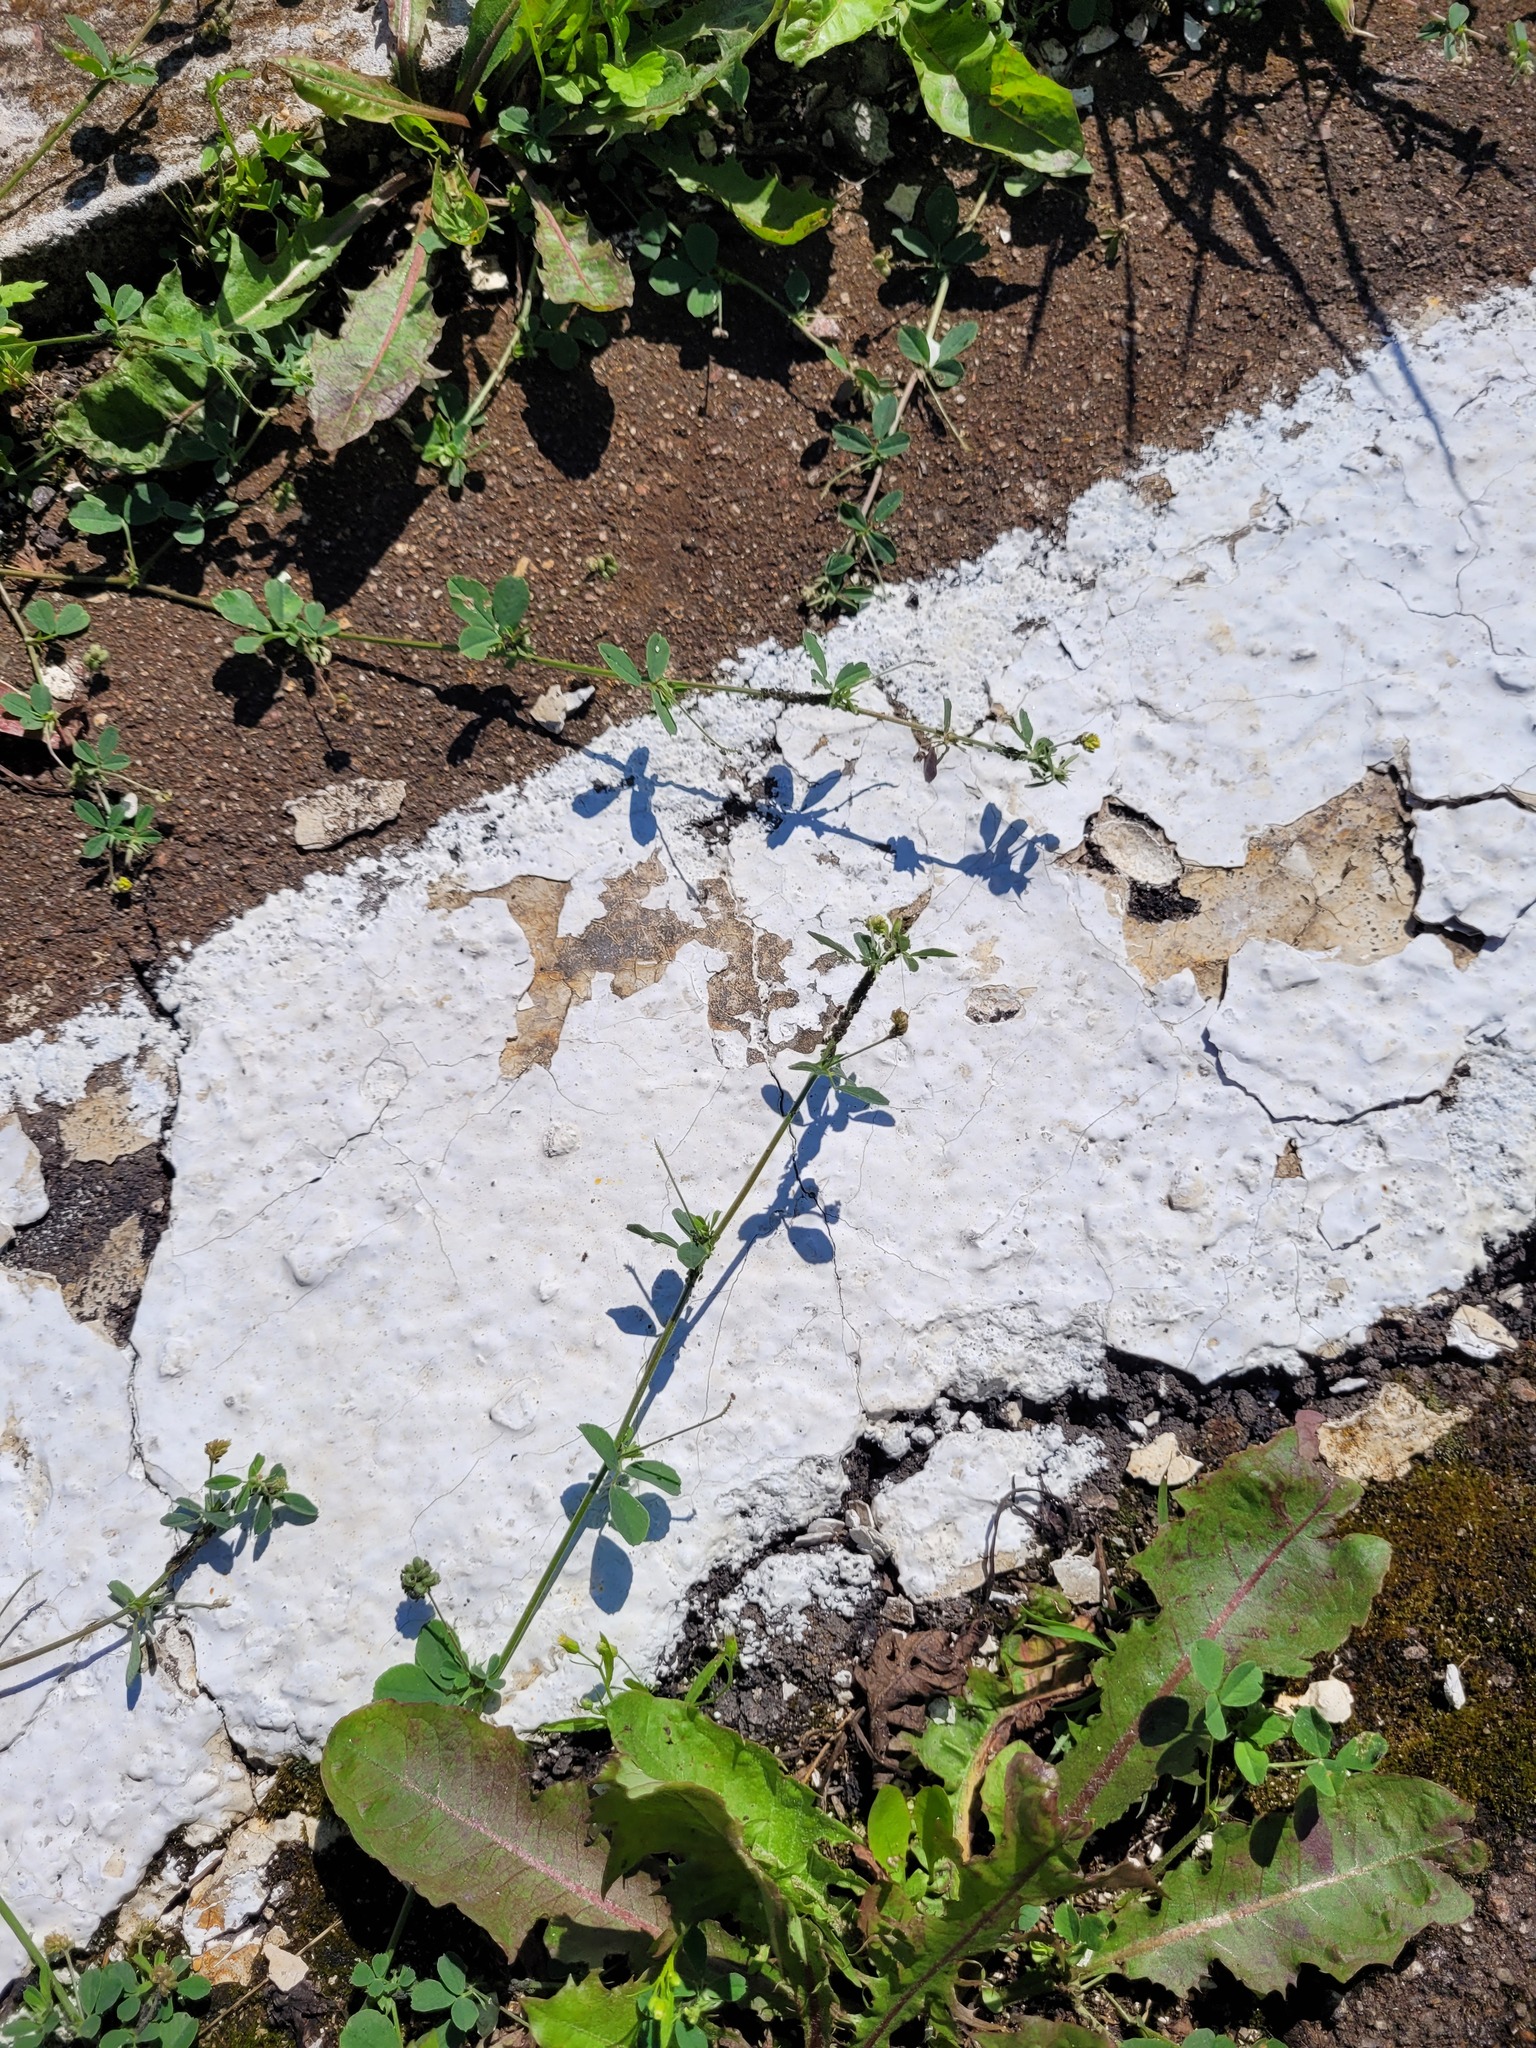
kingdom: Plantae
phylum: Tracheophyta
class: Magnoliopsida
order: Fabales
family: Fabaceae
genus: Medicago
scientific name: Medicago lupulina
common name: Black medick
